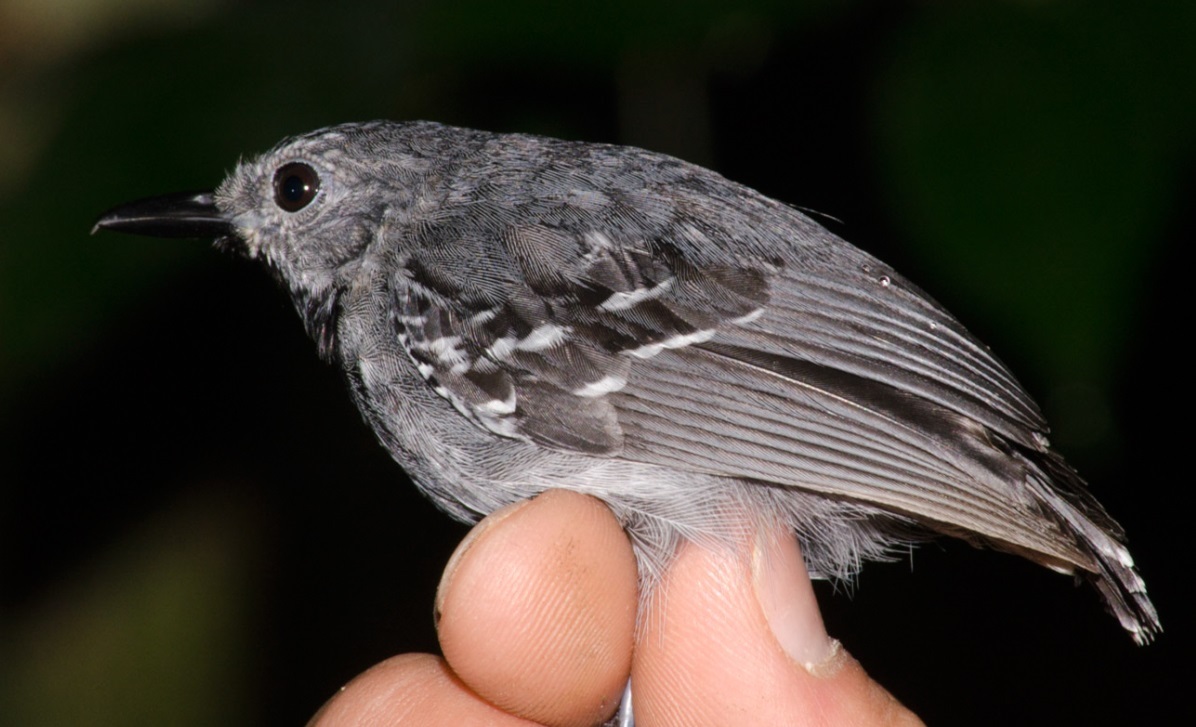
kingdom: Animalia
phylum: Chordata
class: Aves
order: Passeriformes
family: Thamnophilidae
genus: Myrmotherula
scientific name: Myrmotherula longipennis
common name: Long-winged antwren
